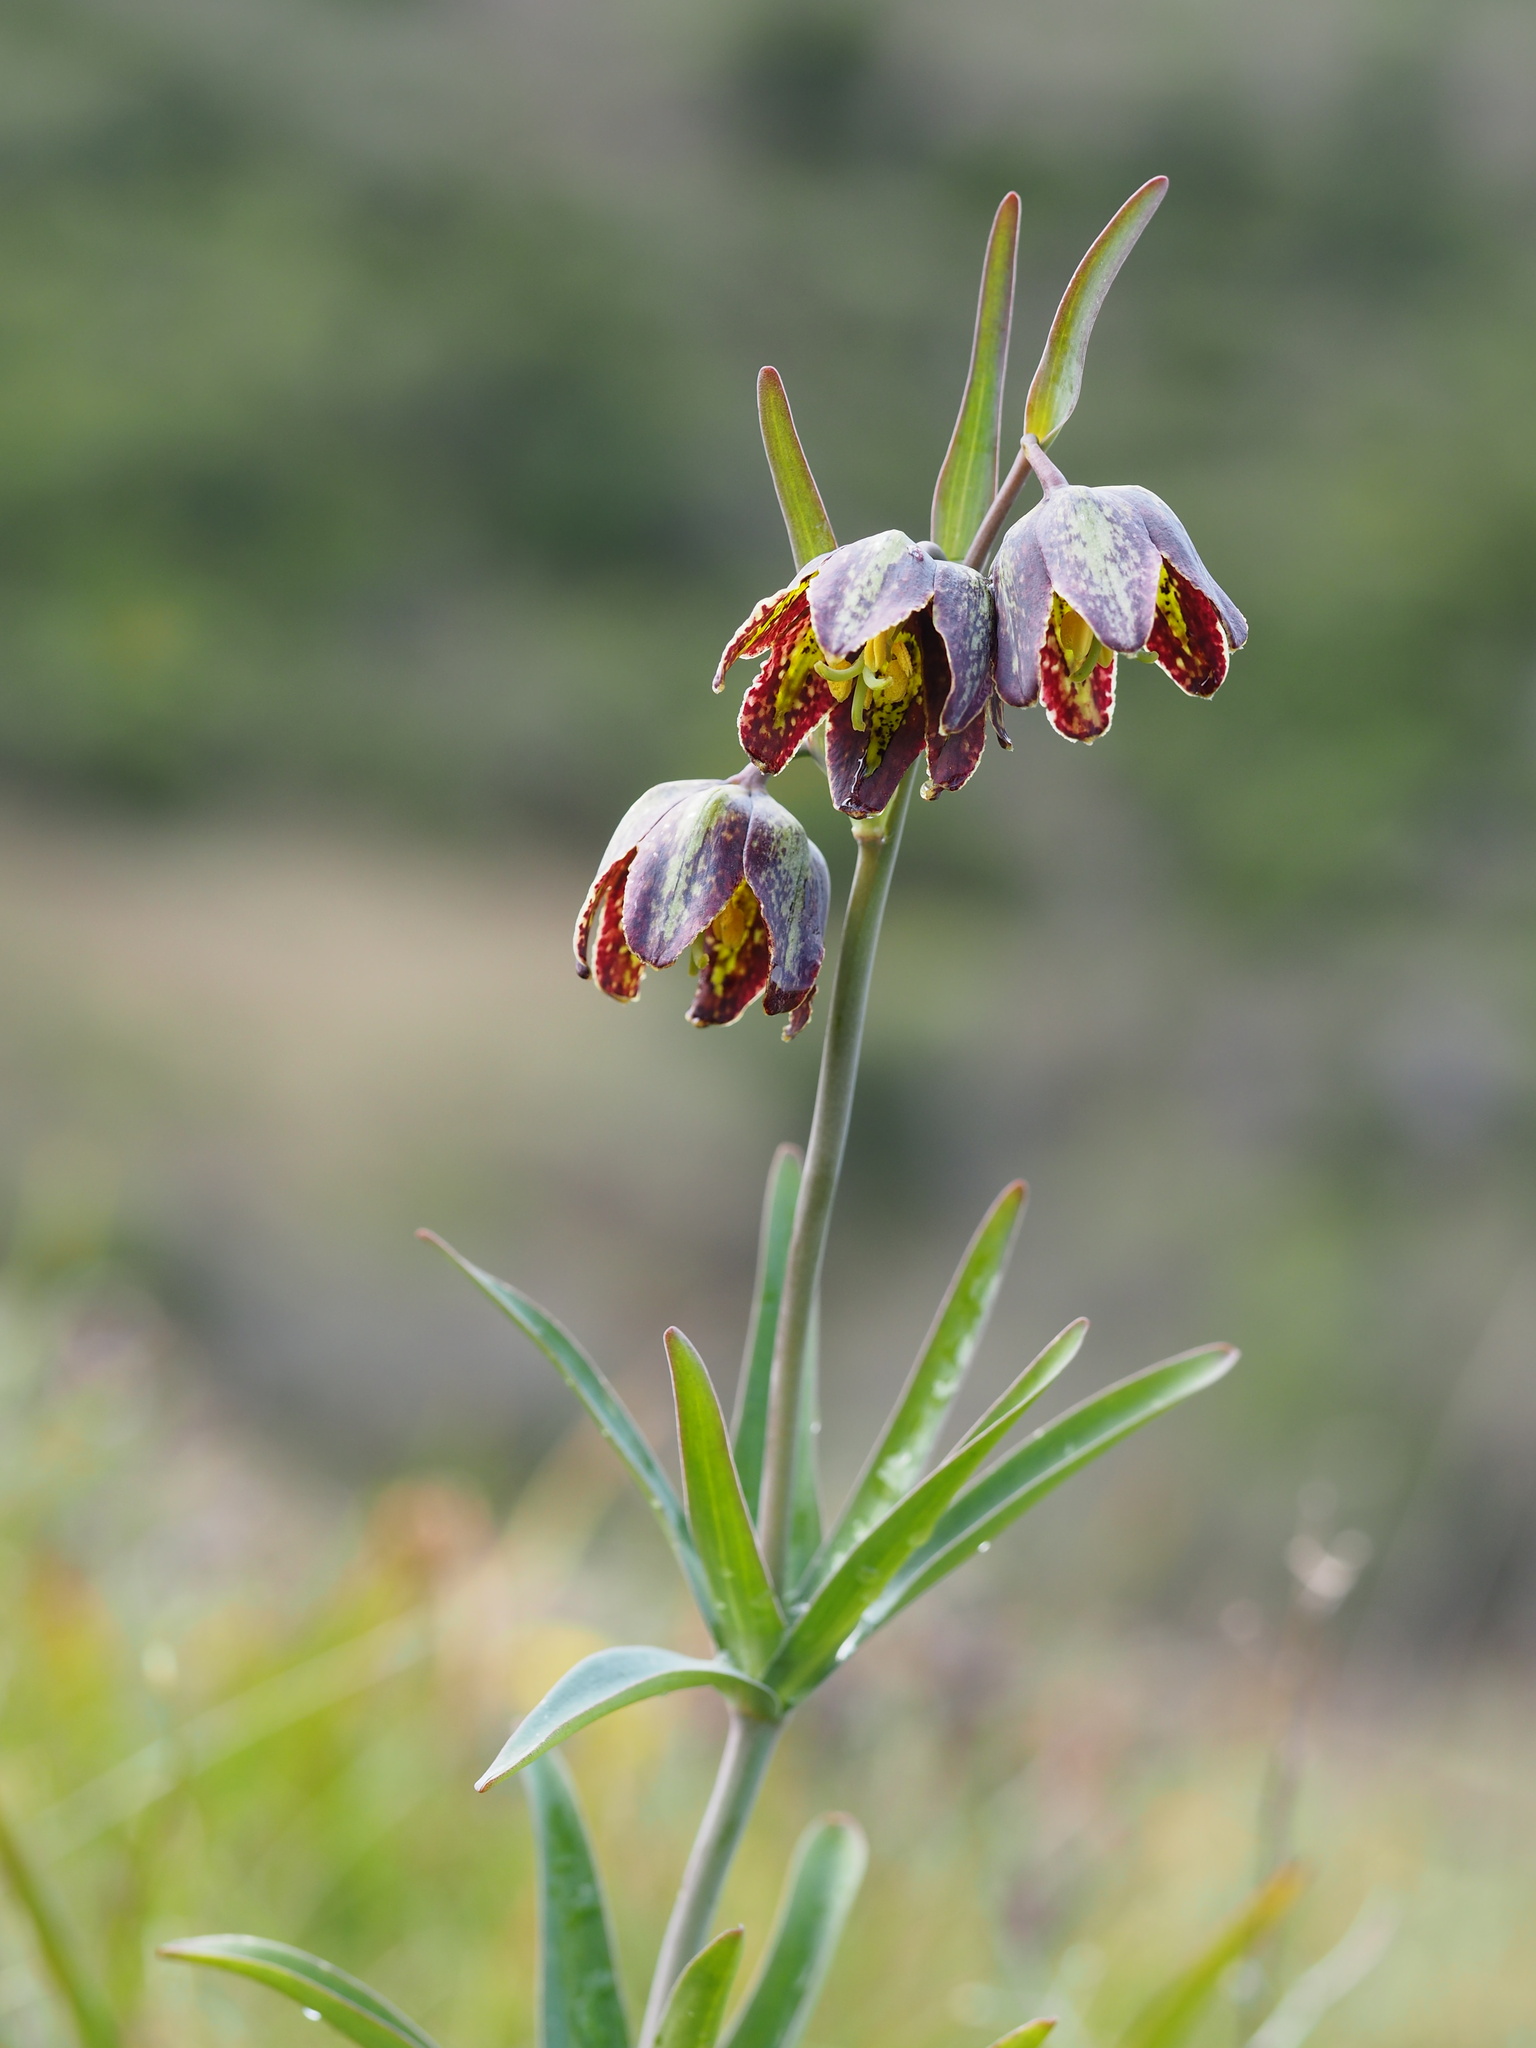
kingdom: Plantae
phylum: Tracheophyta
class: Liliopsida
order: Liliales
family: Liliaceae
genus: Fritillaria
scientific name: Fritillaria affinis
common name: Ojai fritillary
